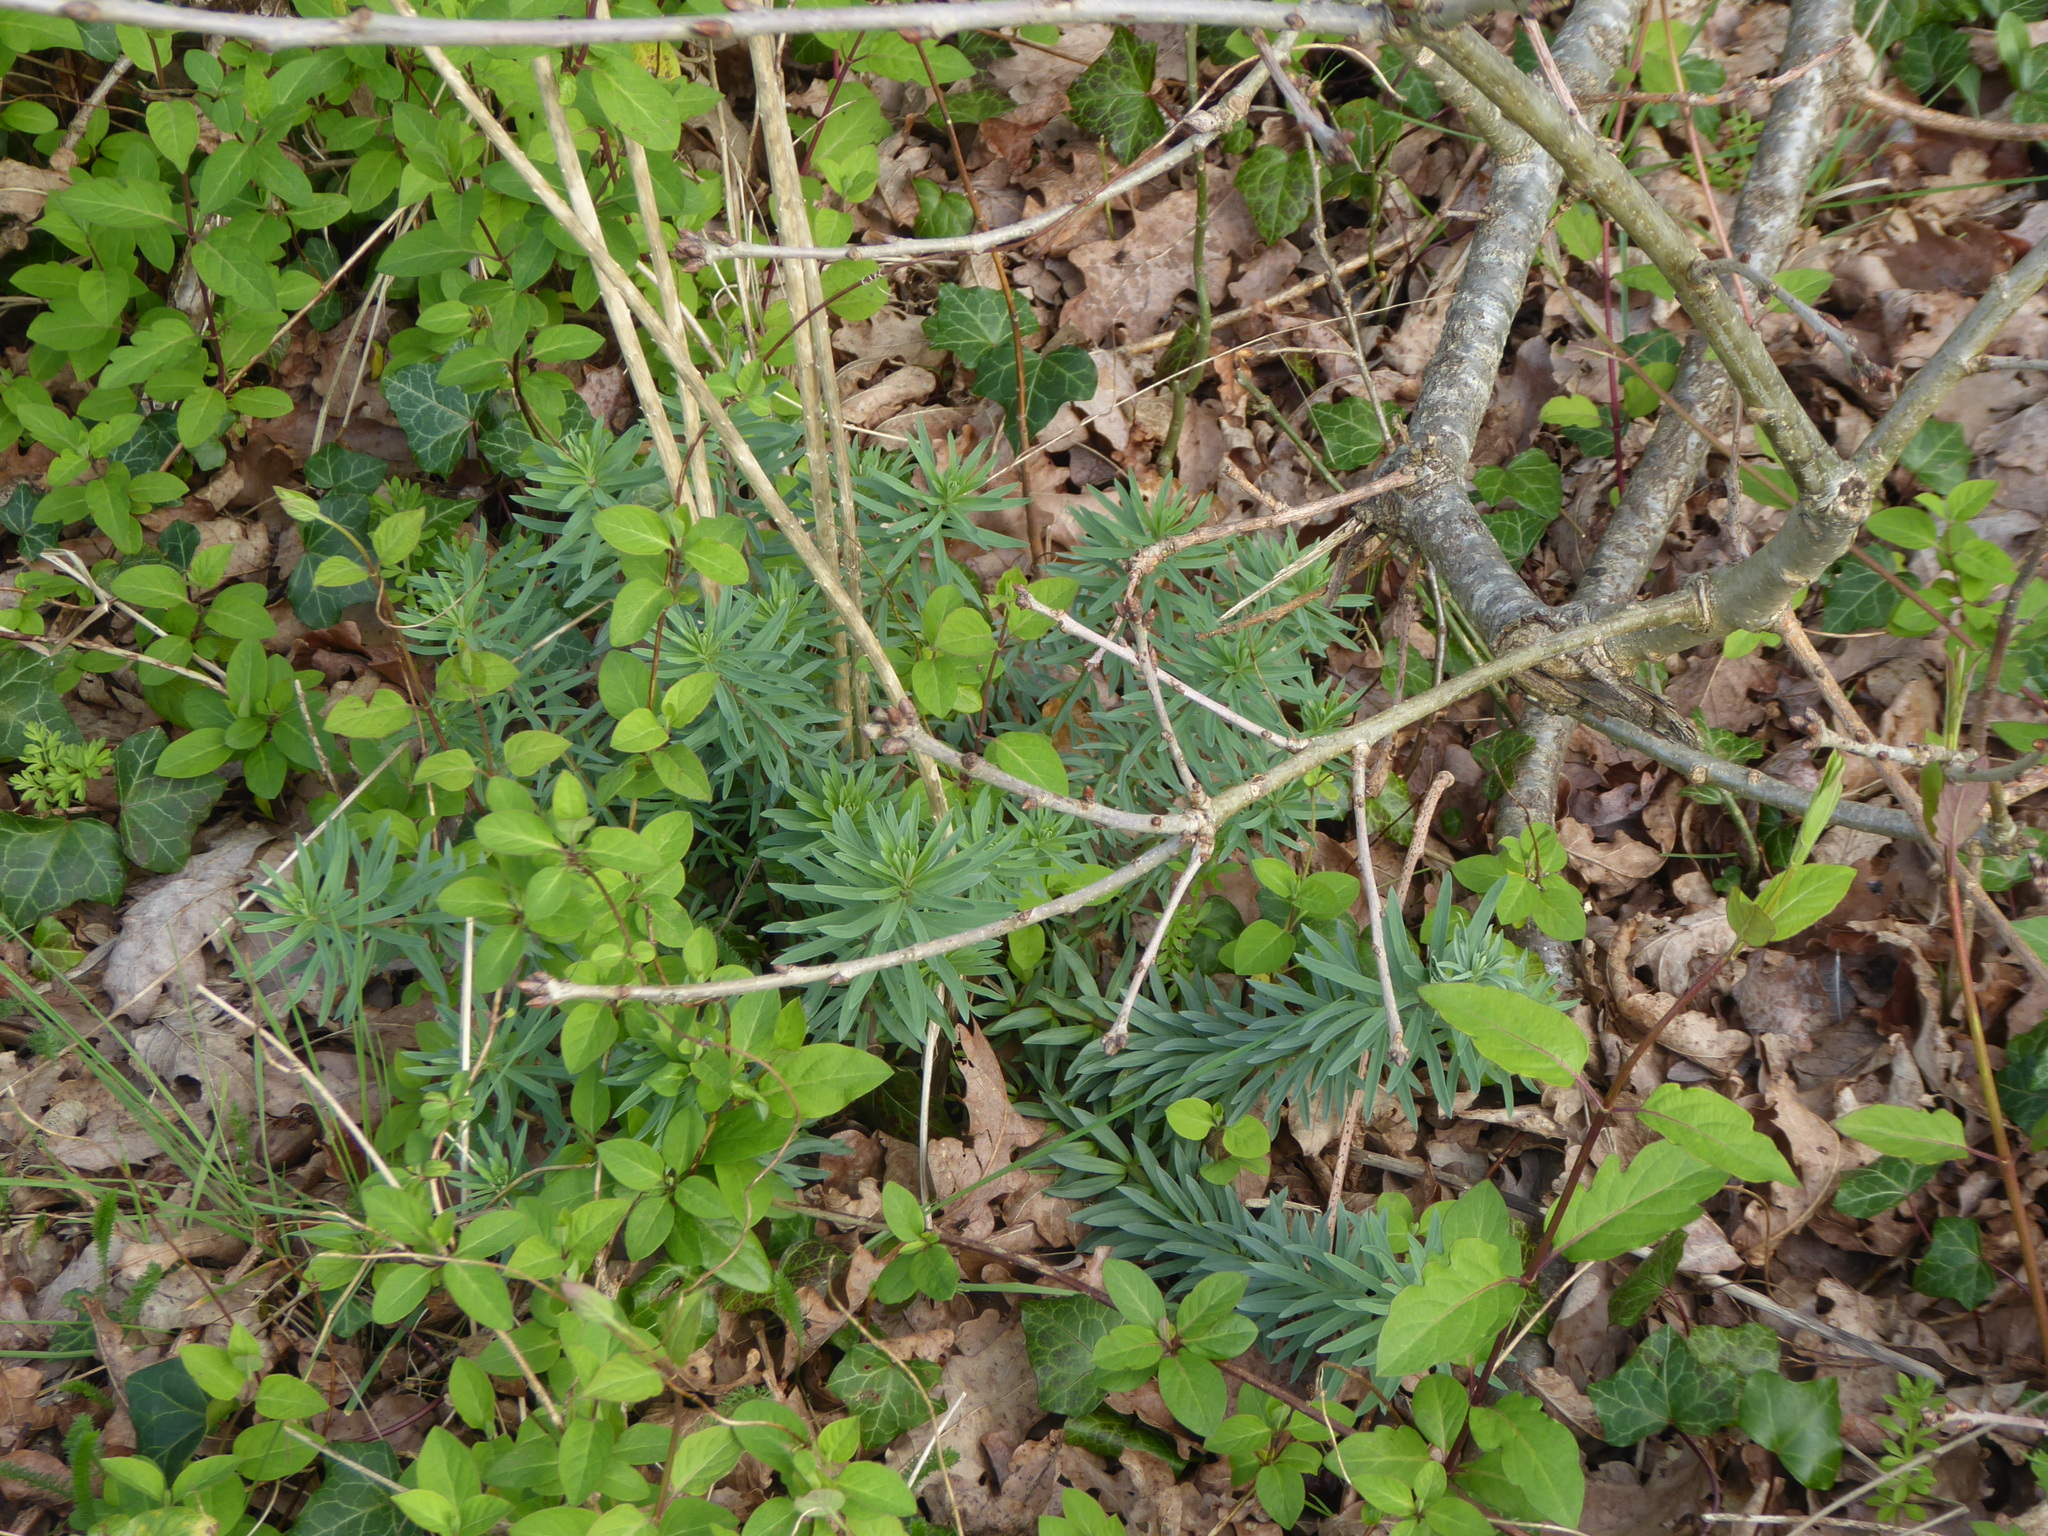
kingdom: Plantae
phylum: Tracheophyta
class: Magnoliopsida
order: Lamiales
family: Plantaginaceae
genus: Linaria
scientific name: Linaria purpurea
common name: Purple toadflax
